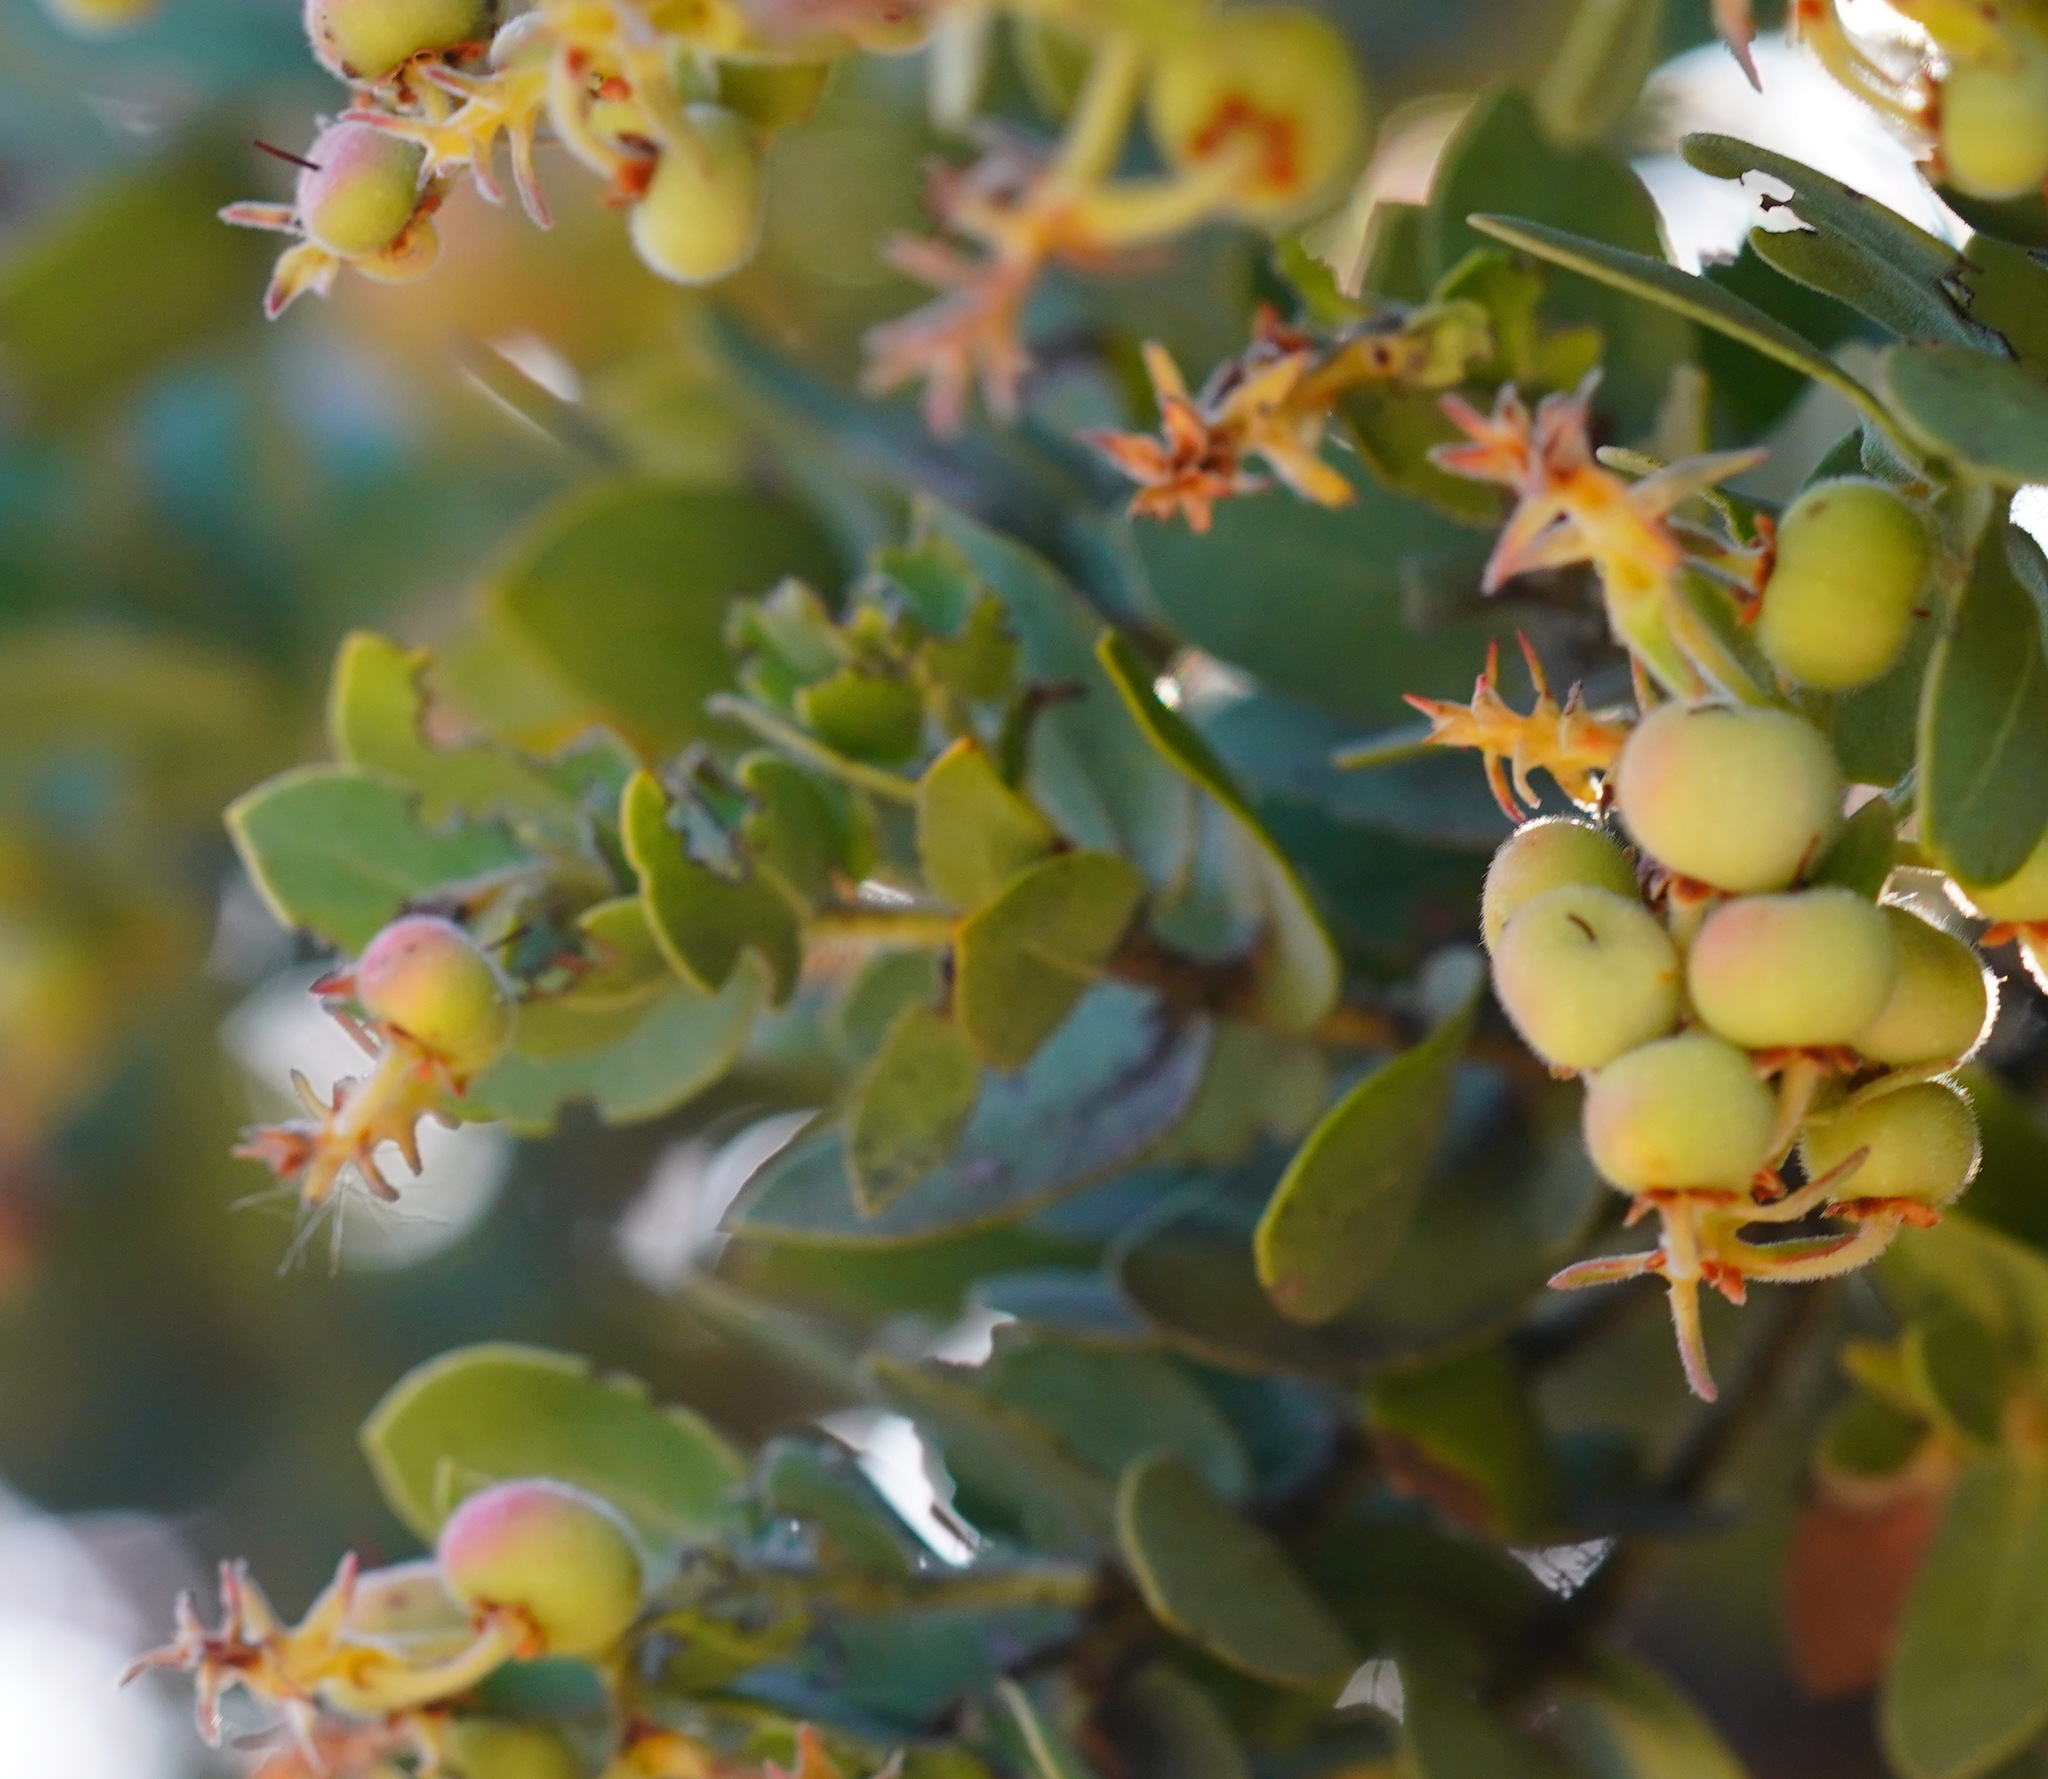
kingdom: Plantae
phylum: Tracheophyta
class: Magnoliopsida
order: Ericales
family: Ericaceae
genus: Arctostaphylos
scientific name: Arctostaphylos auriculata
